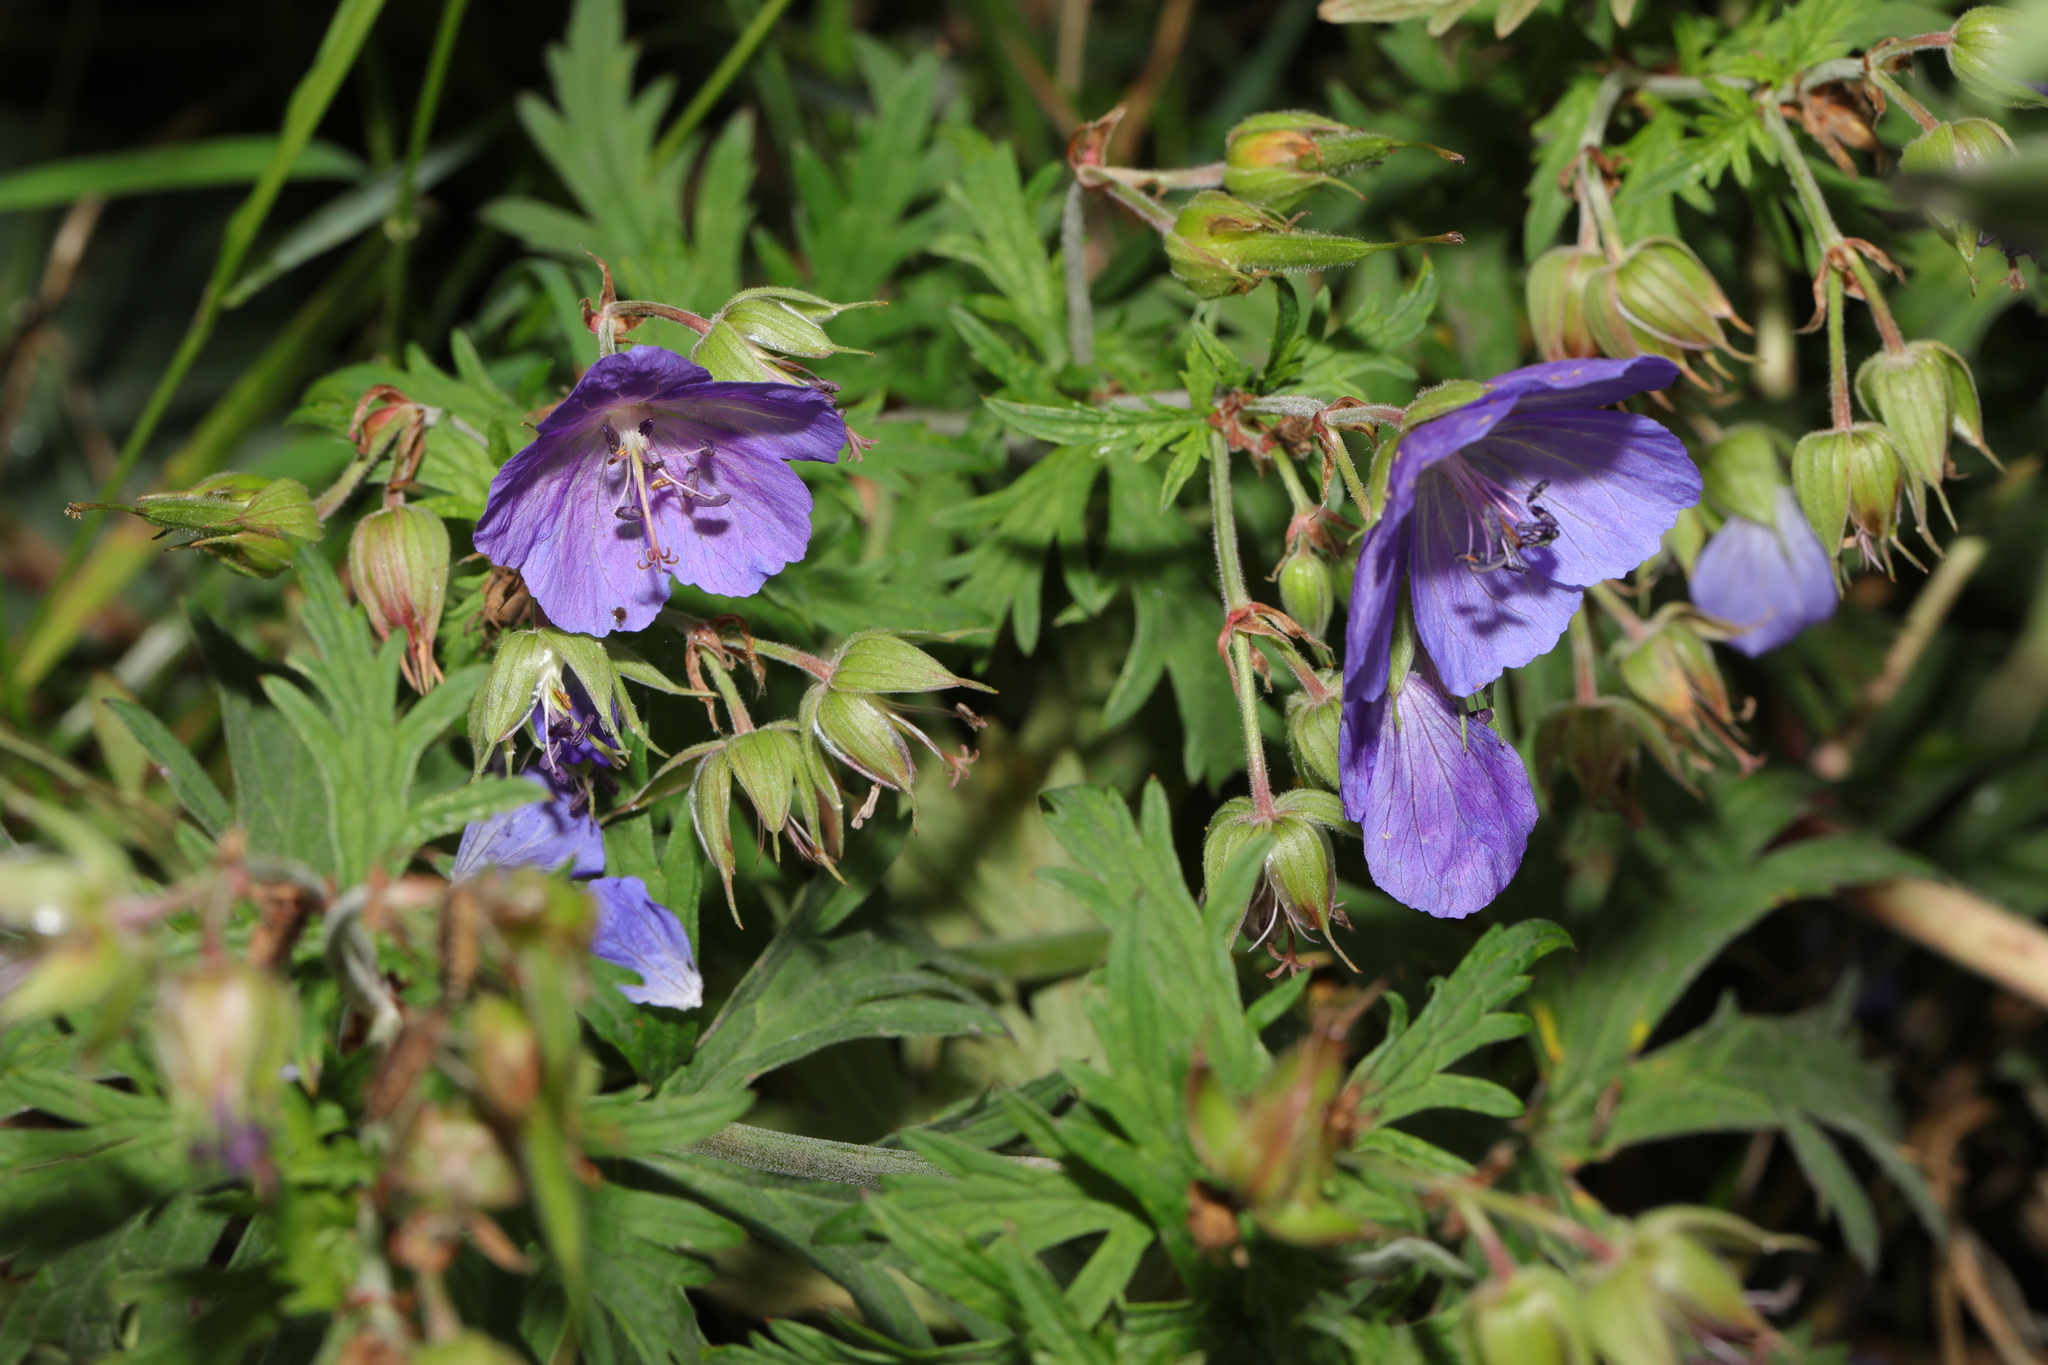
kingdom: Plantae
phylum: Tracheophyta
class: Magnoliopsida
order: Geraniales
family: Geraniaceae
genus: Geranium
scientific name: Geranium pratense
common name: Meadow crane's-bill
